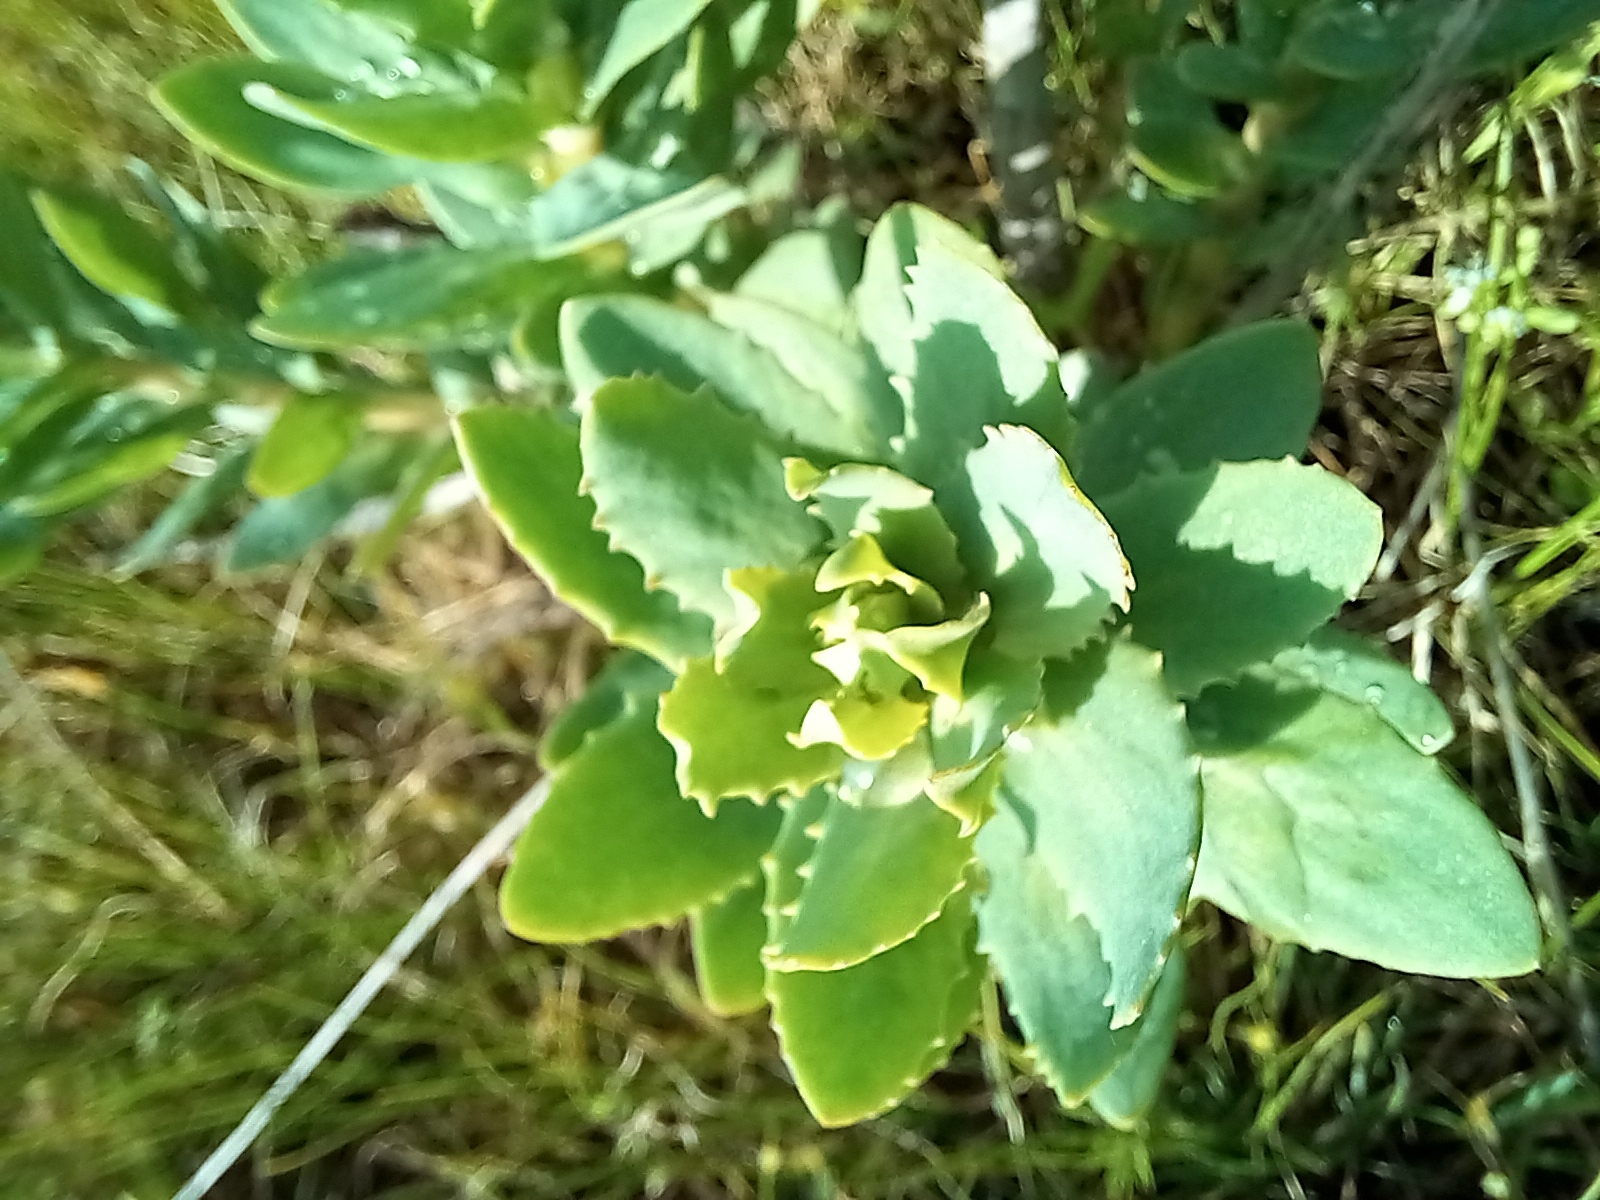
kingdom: Plantae
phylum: Tracheophyta
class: Magnoliopsida
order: Saxifragales
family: Crassulaceae
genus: Hylotelephium
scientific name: Hylotelephium telephium
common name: Live-forever
